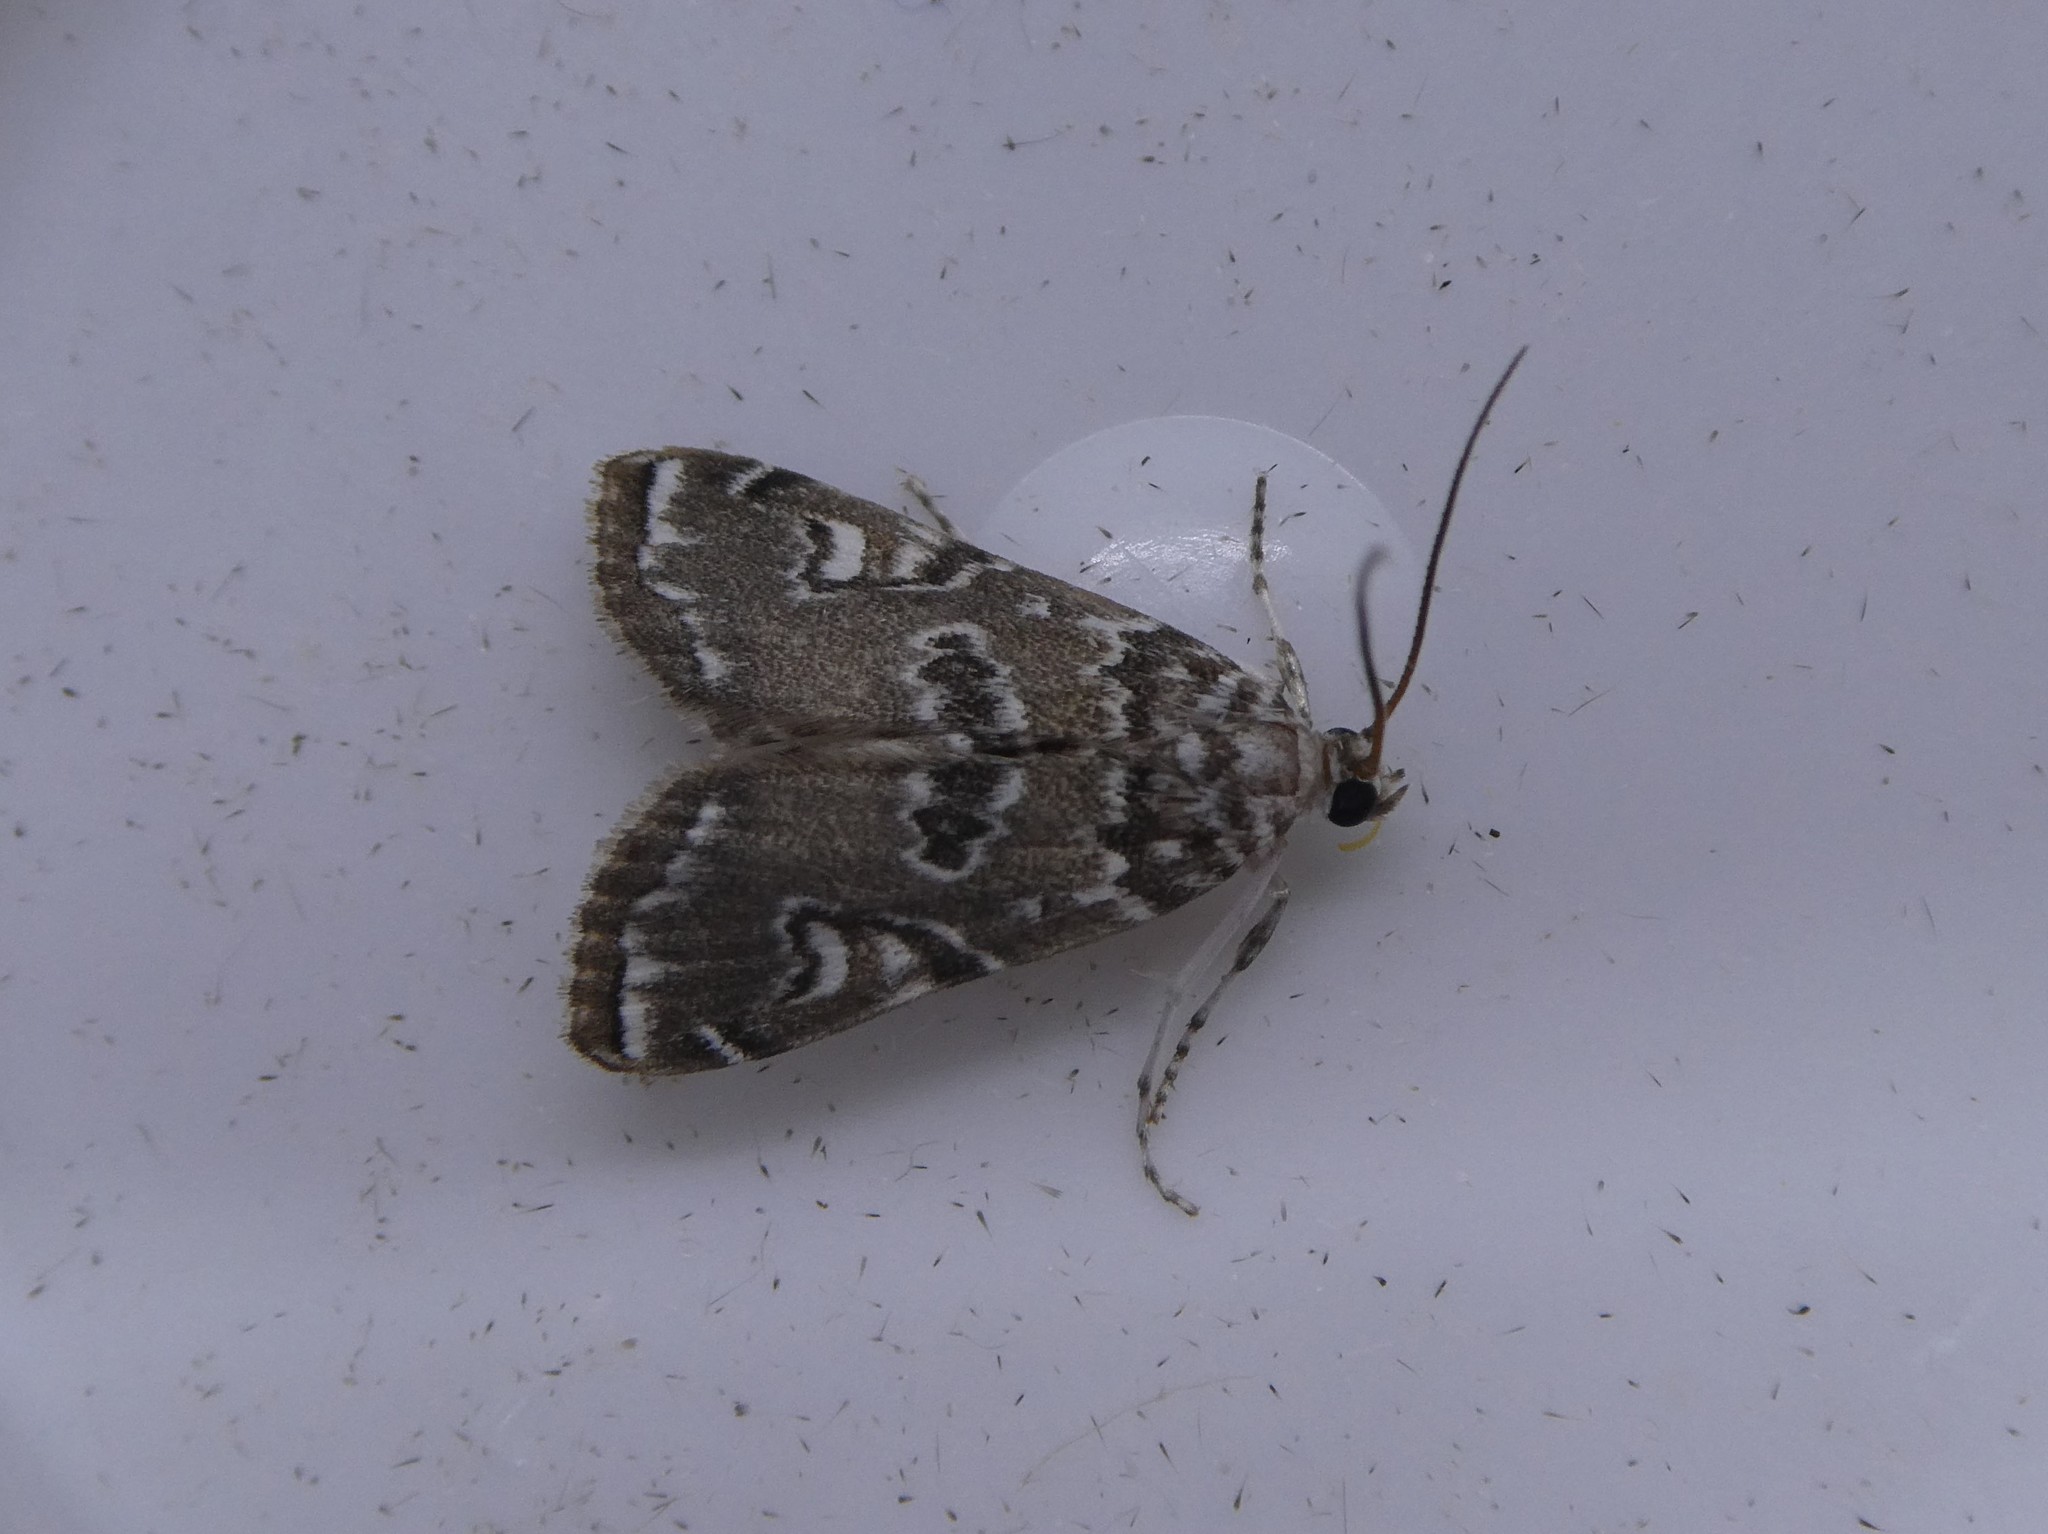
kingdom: Animalia
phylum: Arthropoda
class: Insecta
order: Lepidoptera
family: Crambidae
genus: Elophila
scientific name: Elophila gyralis
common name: Waterlily borer moth
